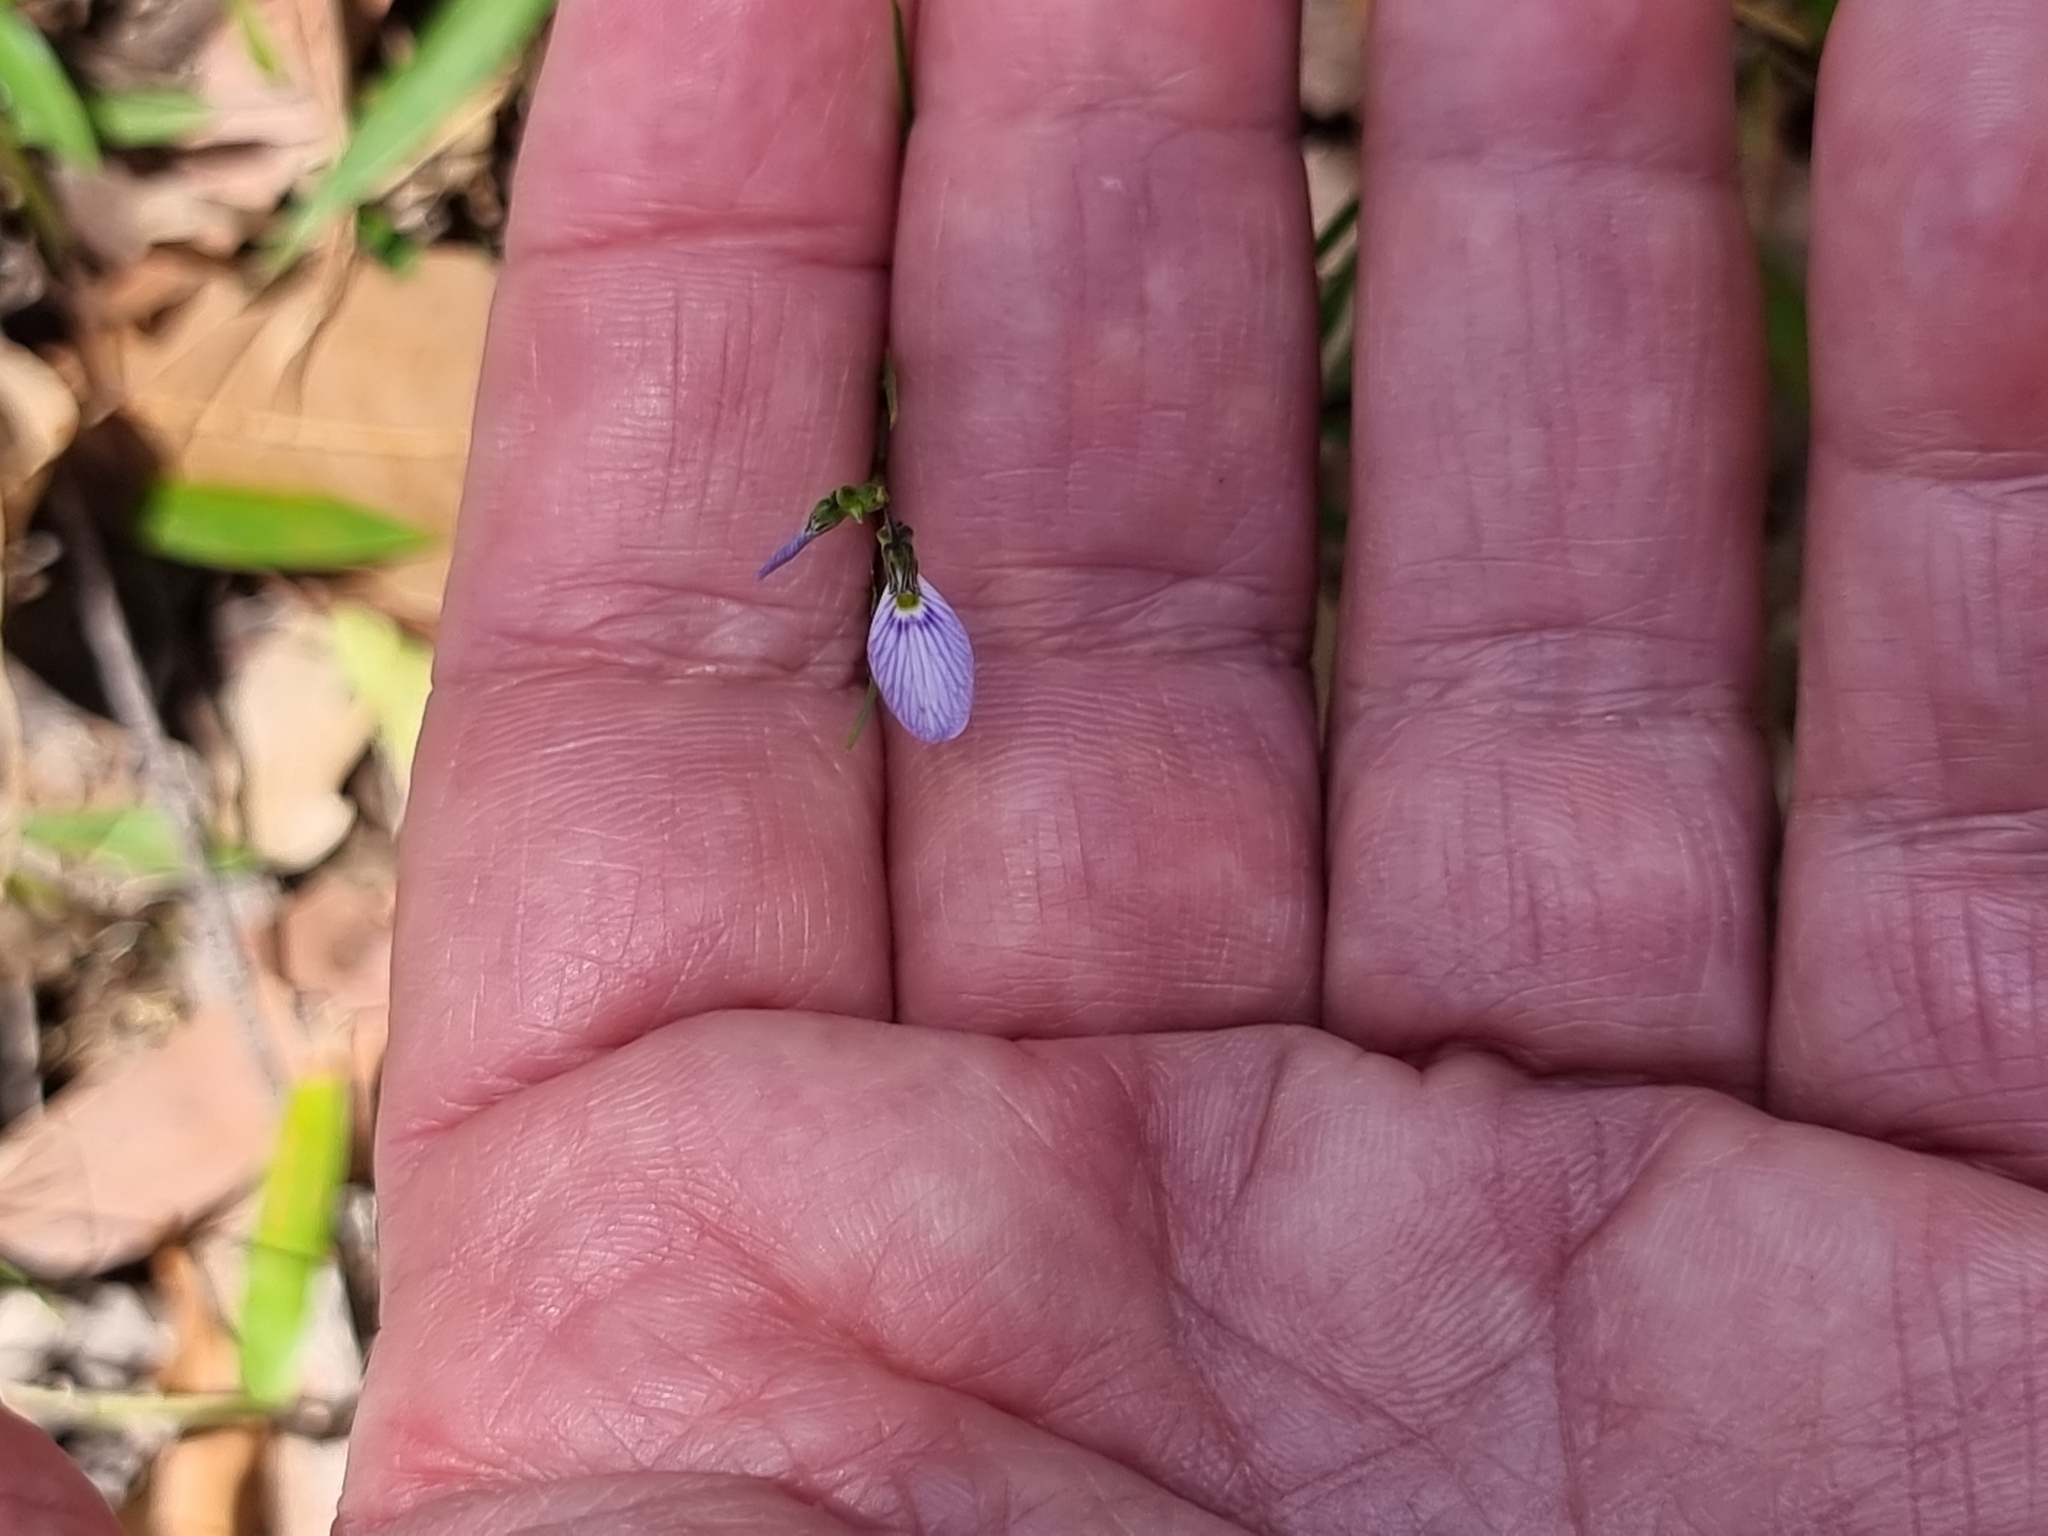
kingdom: Plantae
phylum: Tracheophyta
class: Magnoliopsida
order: Malpighiales
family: Violaceae
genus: Pigea
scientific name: Pigea monopetala
